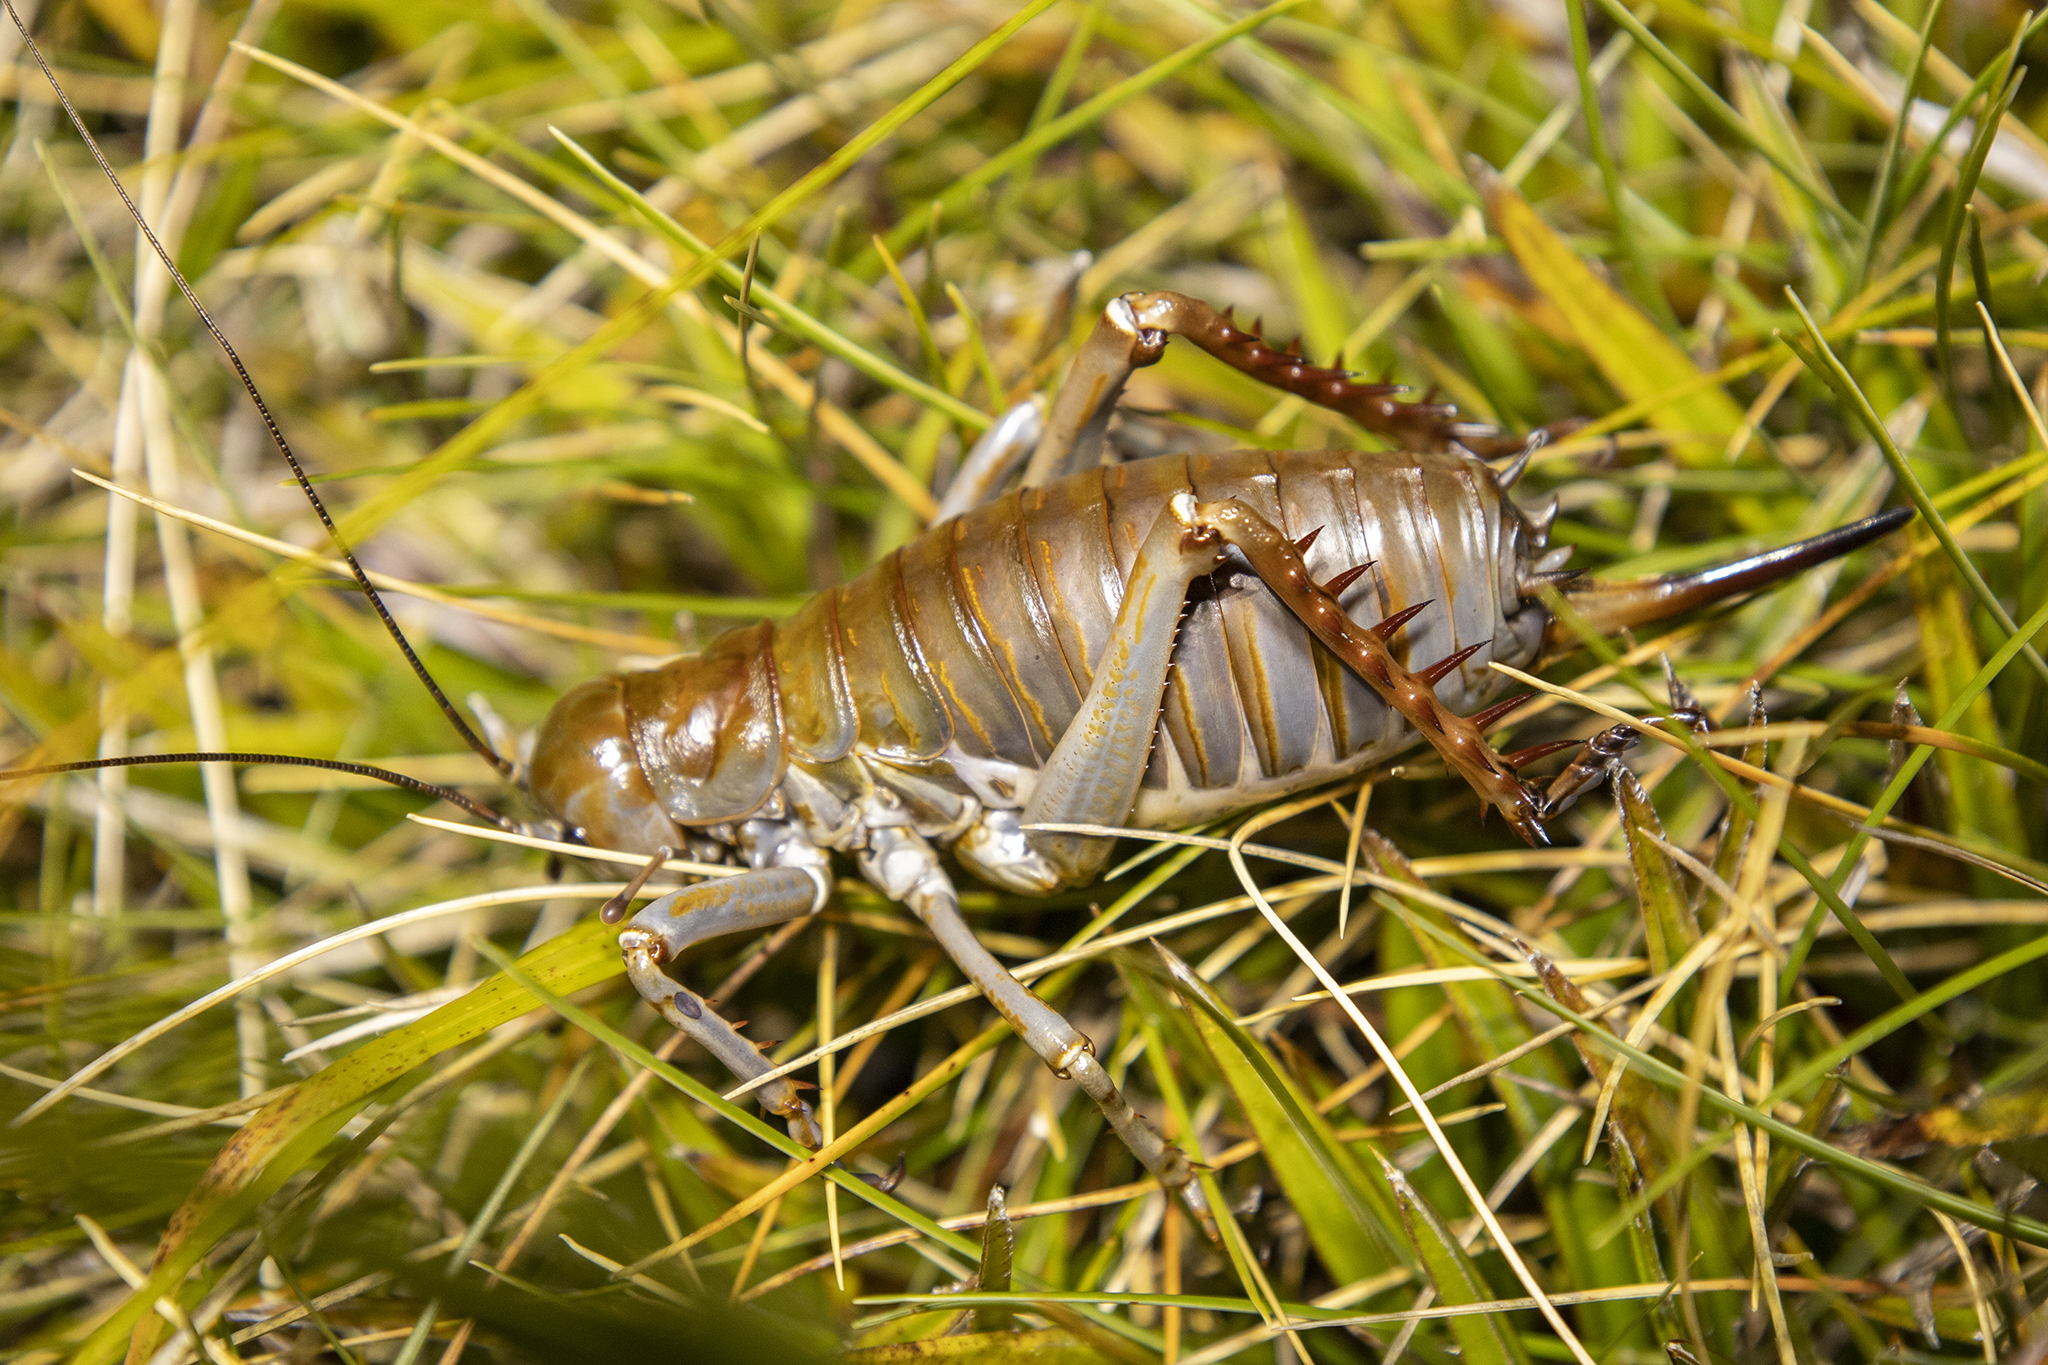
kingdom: Animalia
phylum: Arthropoda
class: Insecta
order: Orthoptera
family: Anostostomatidae
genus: Deinacrida
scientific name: Deinacrida talpa
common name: Giant mole weta
